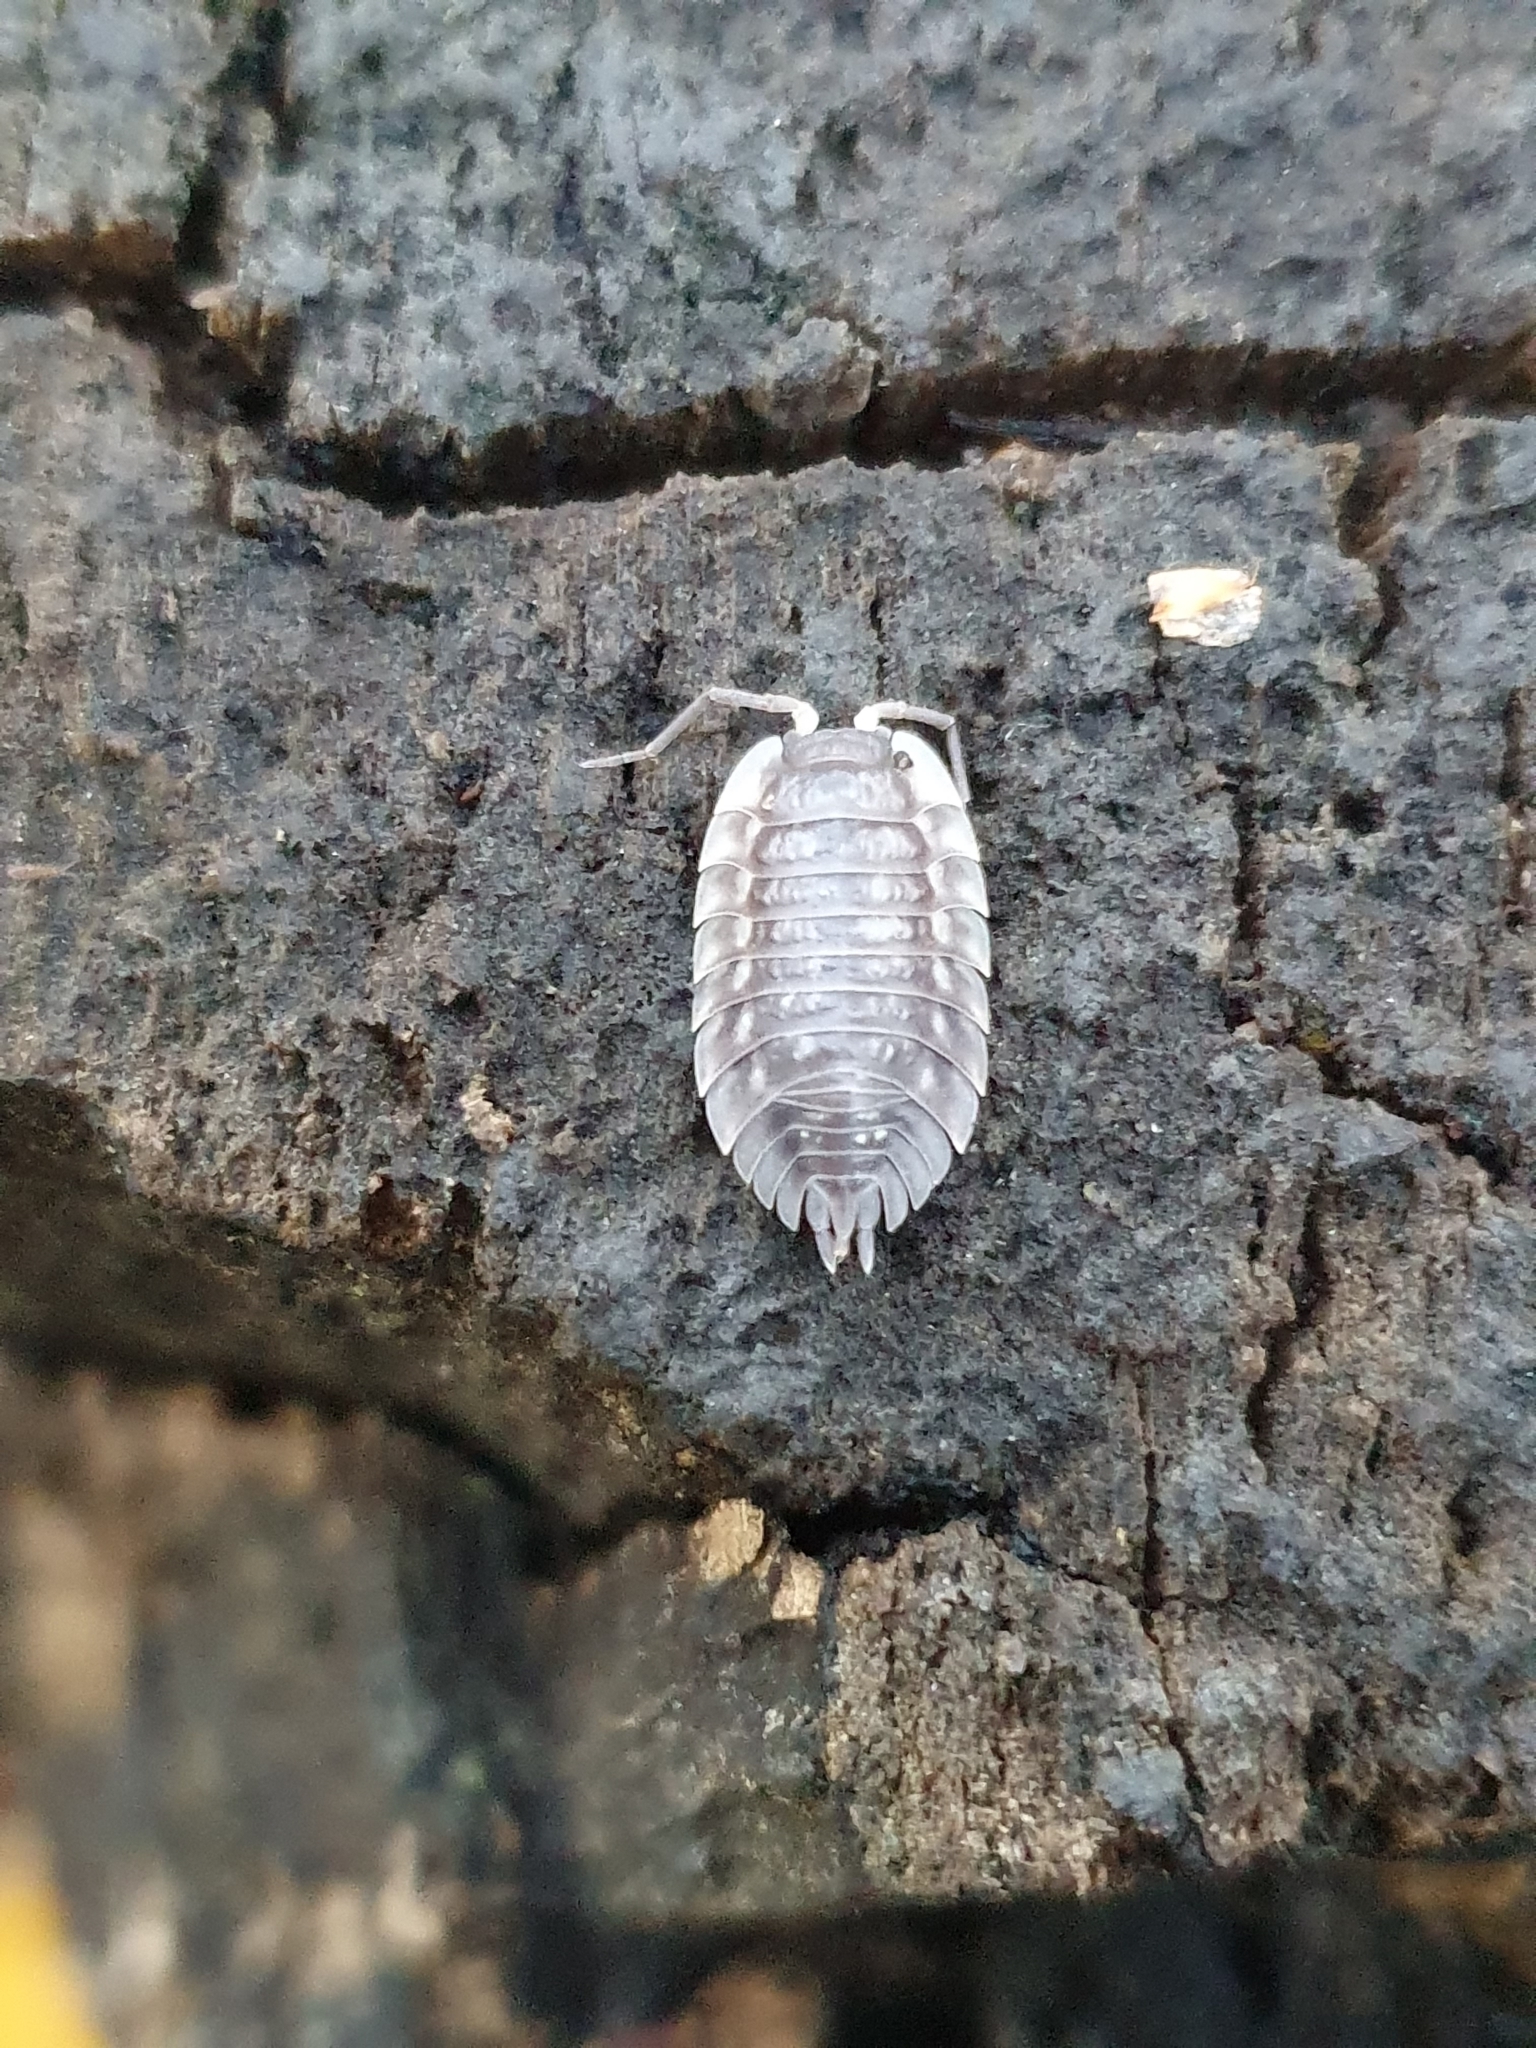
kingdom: Animalia
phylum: Arthropoda
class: Malacostraca
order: Isopoda
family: Oniscidae
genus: Oniscus
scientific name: Oniscus asellus
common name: Common shiny woodlouse
